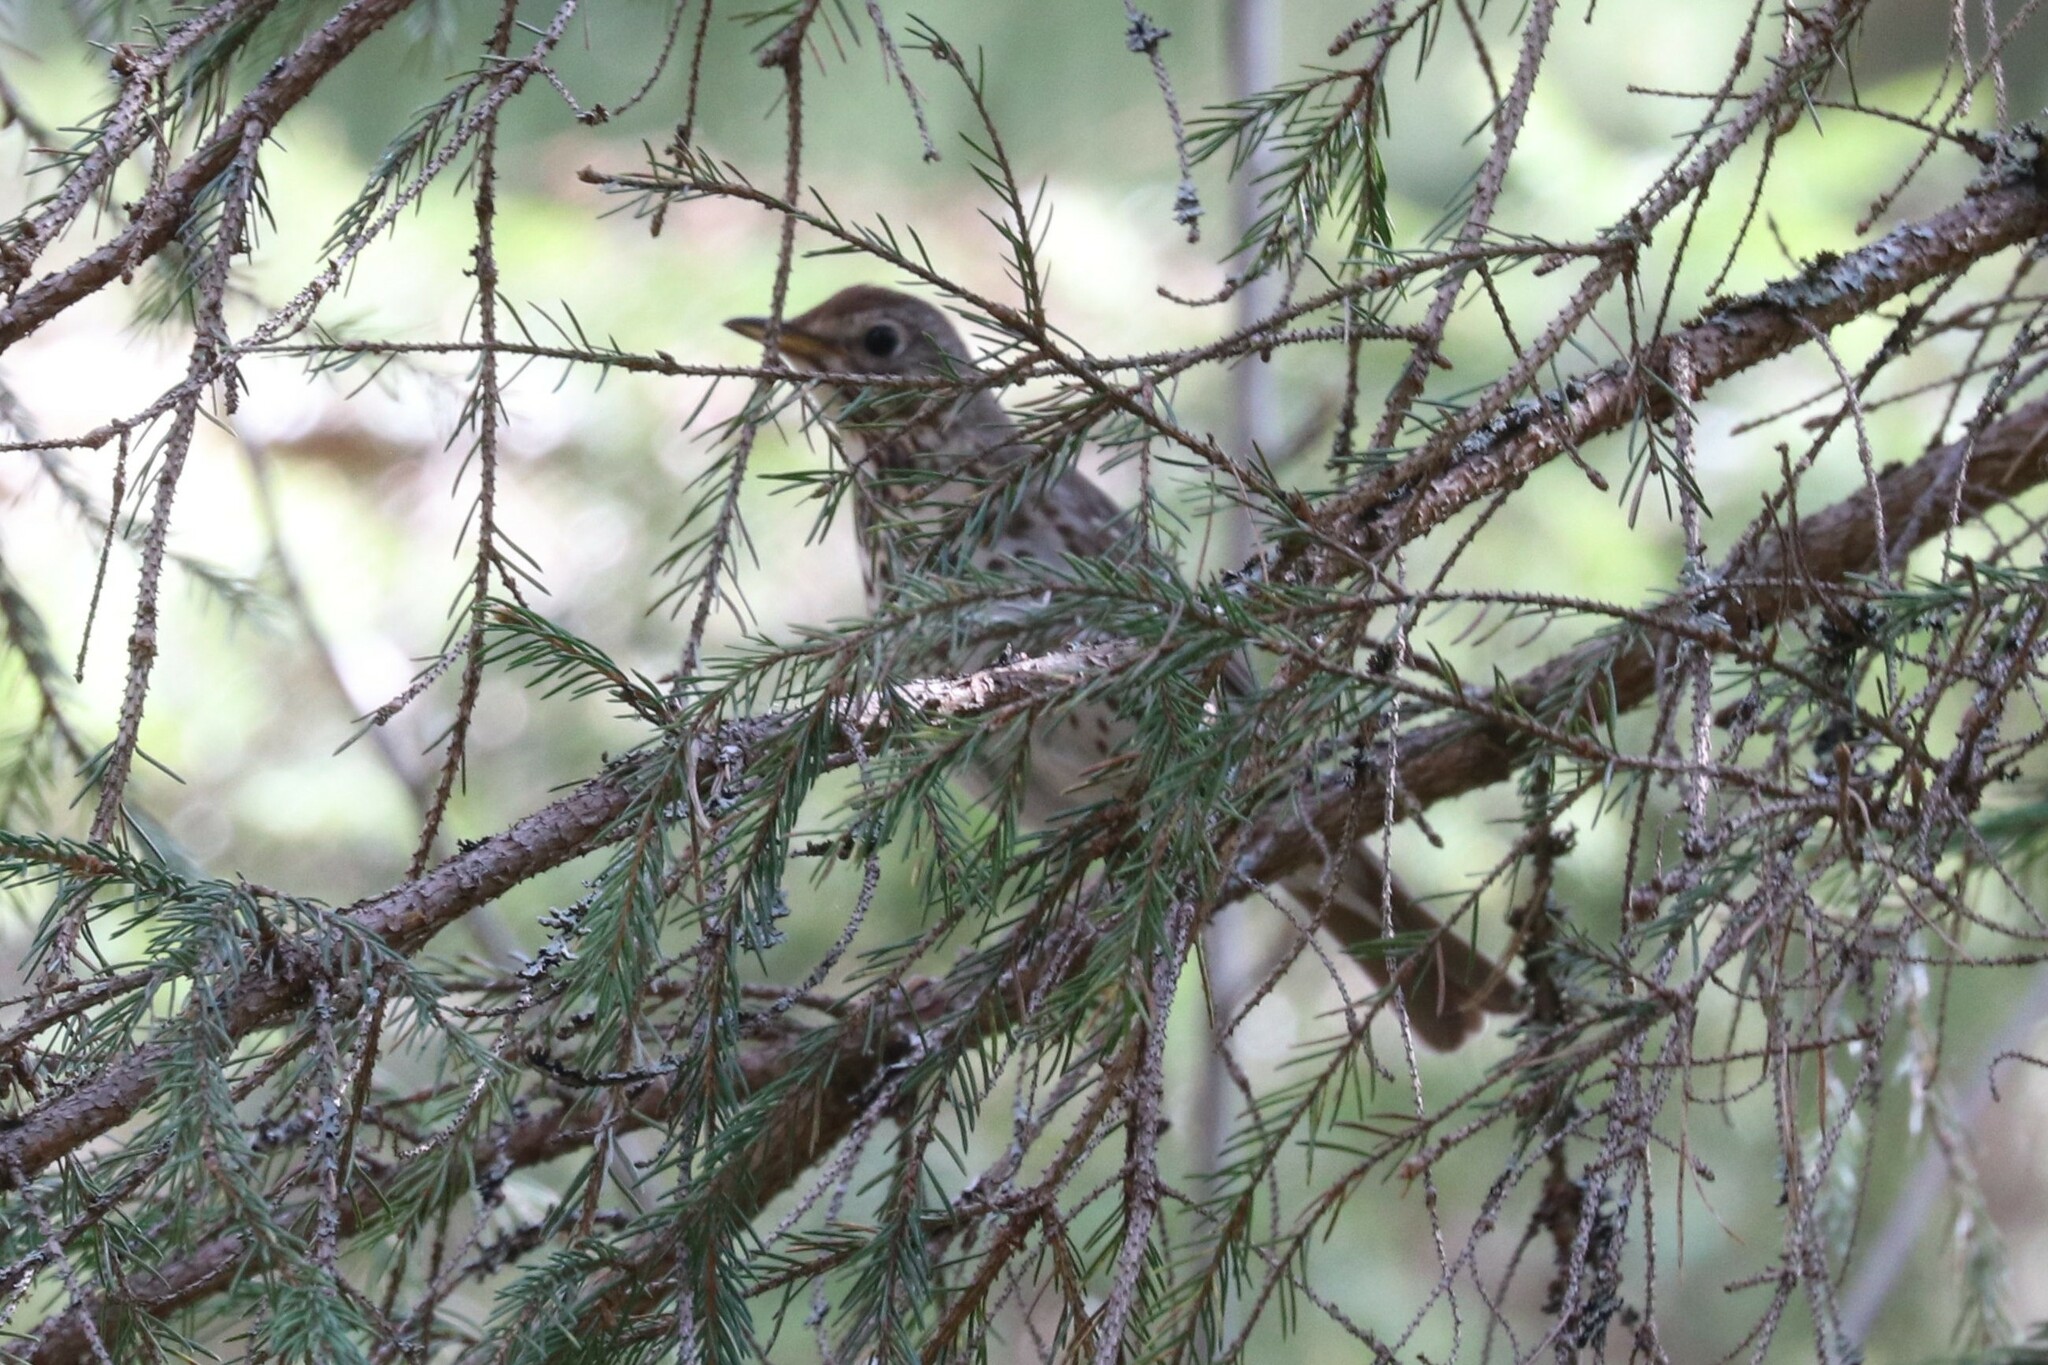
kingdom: Animalia
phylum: Chordata
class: Aves
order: Passeriformes
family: Turdidae
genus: Turdus
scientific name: Turdus philomelos
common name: Song thrush
